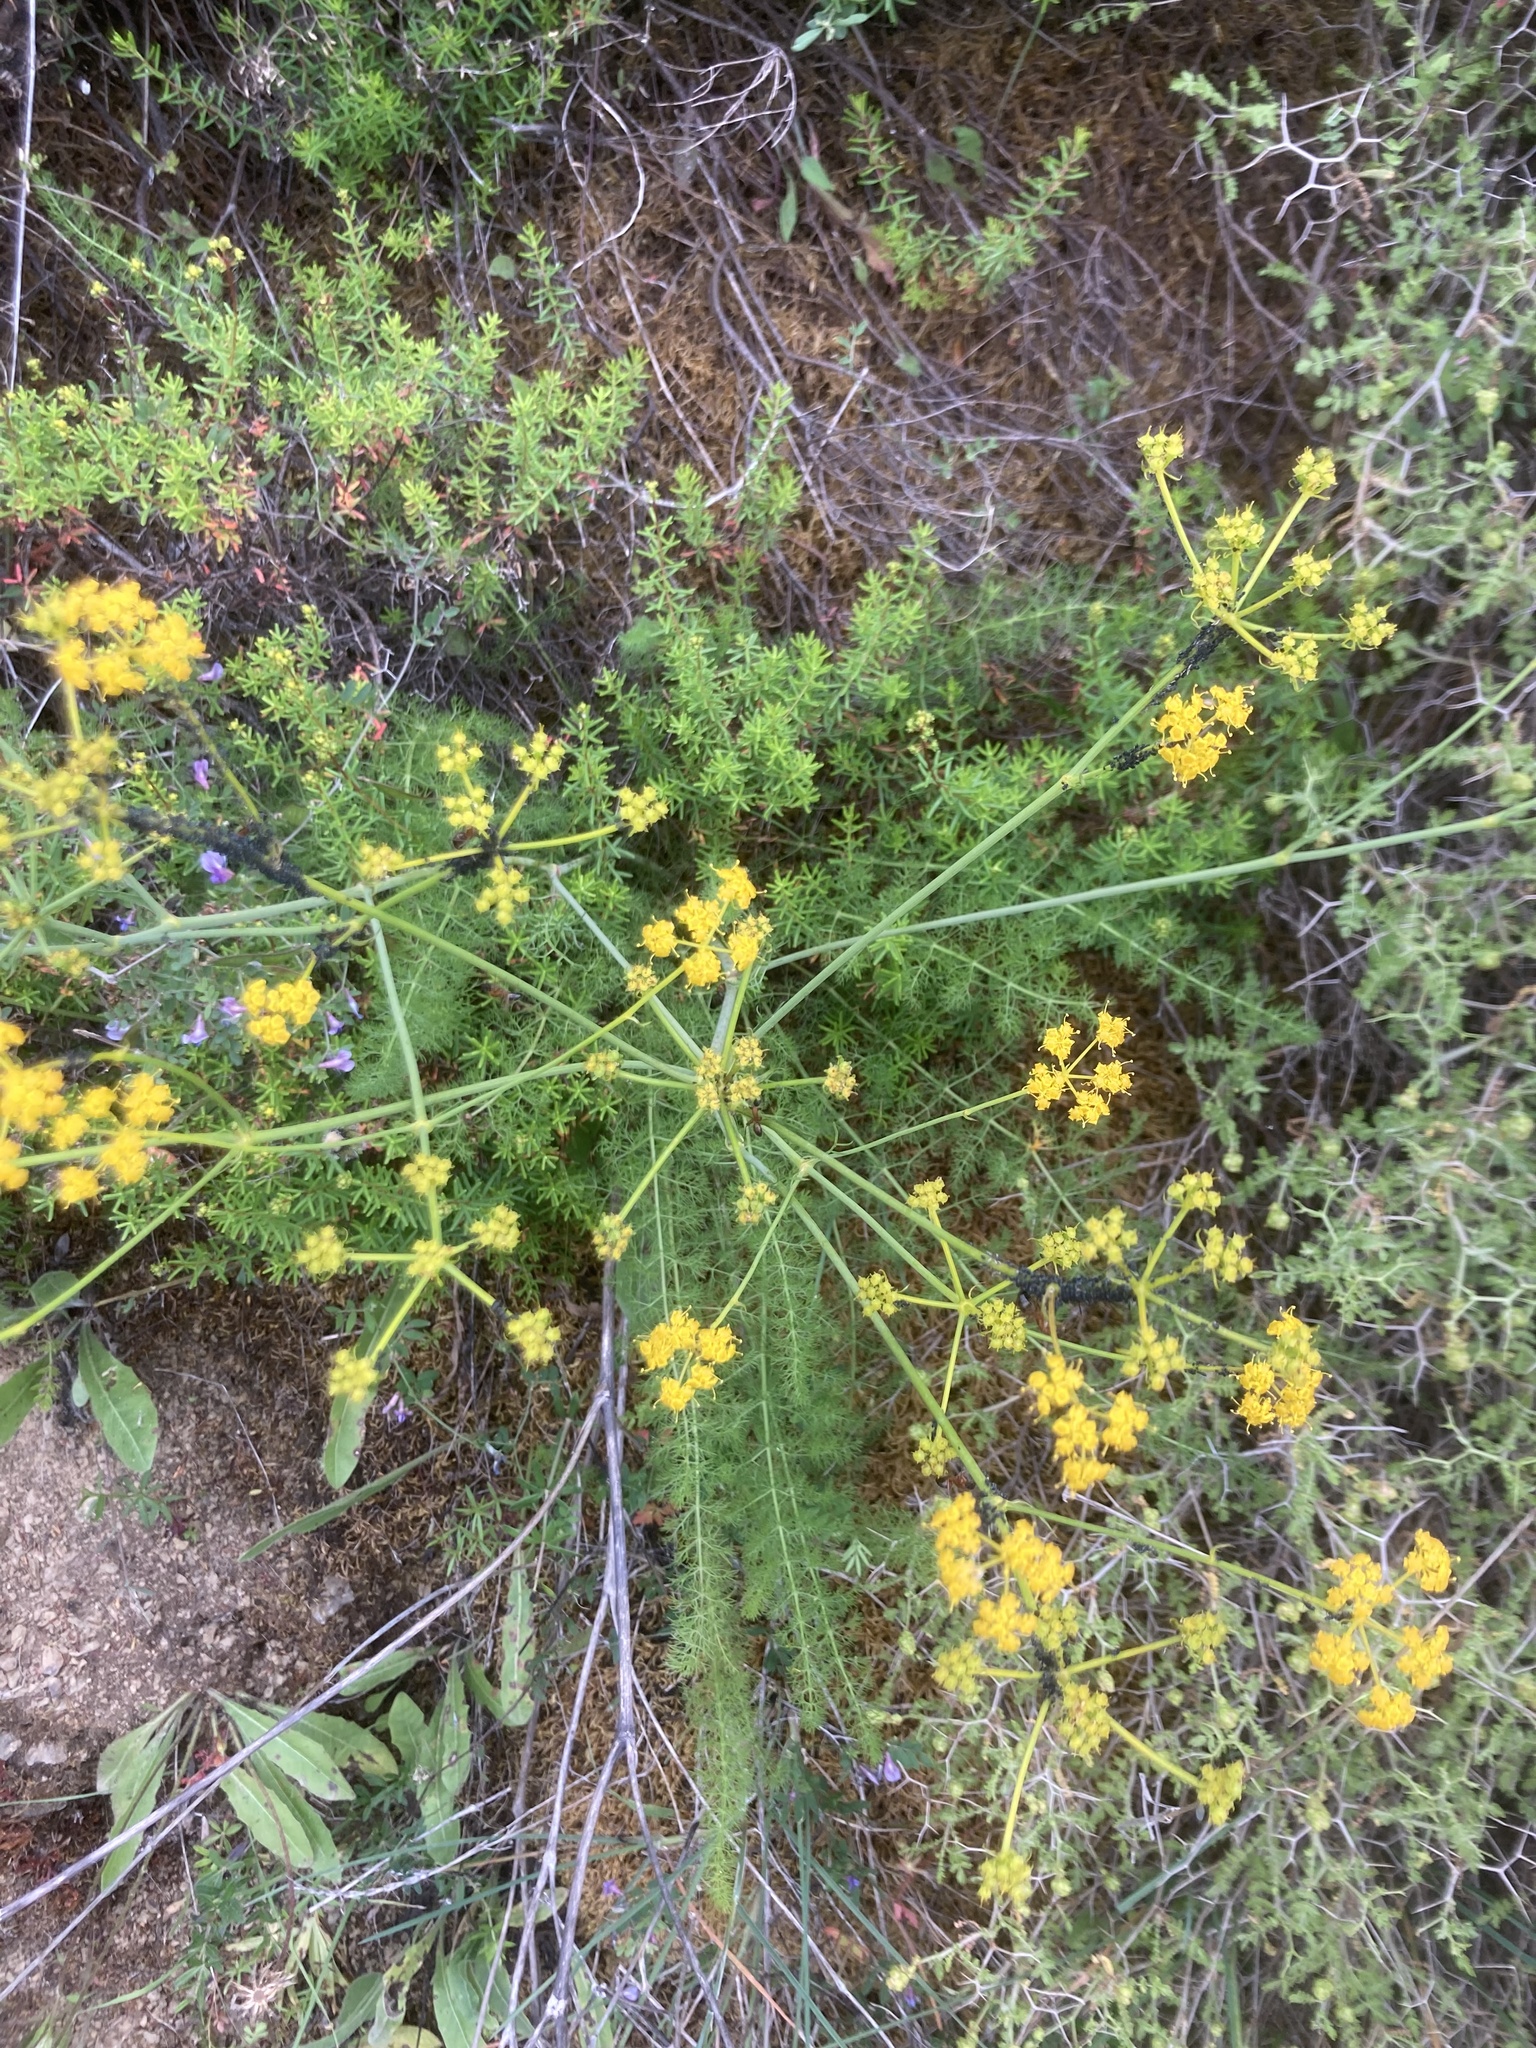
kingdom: Plantae
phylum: Tracheophyta
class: Magnoliopsida
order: Apiales
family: Apiaceae
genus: Ferulago
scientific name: Ferulago humilis
